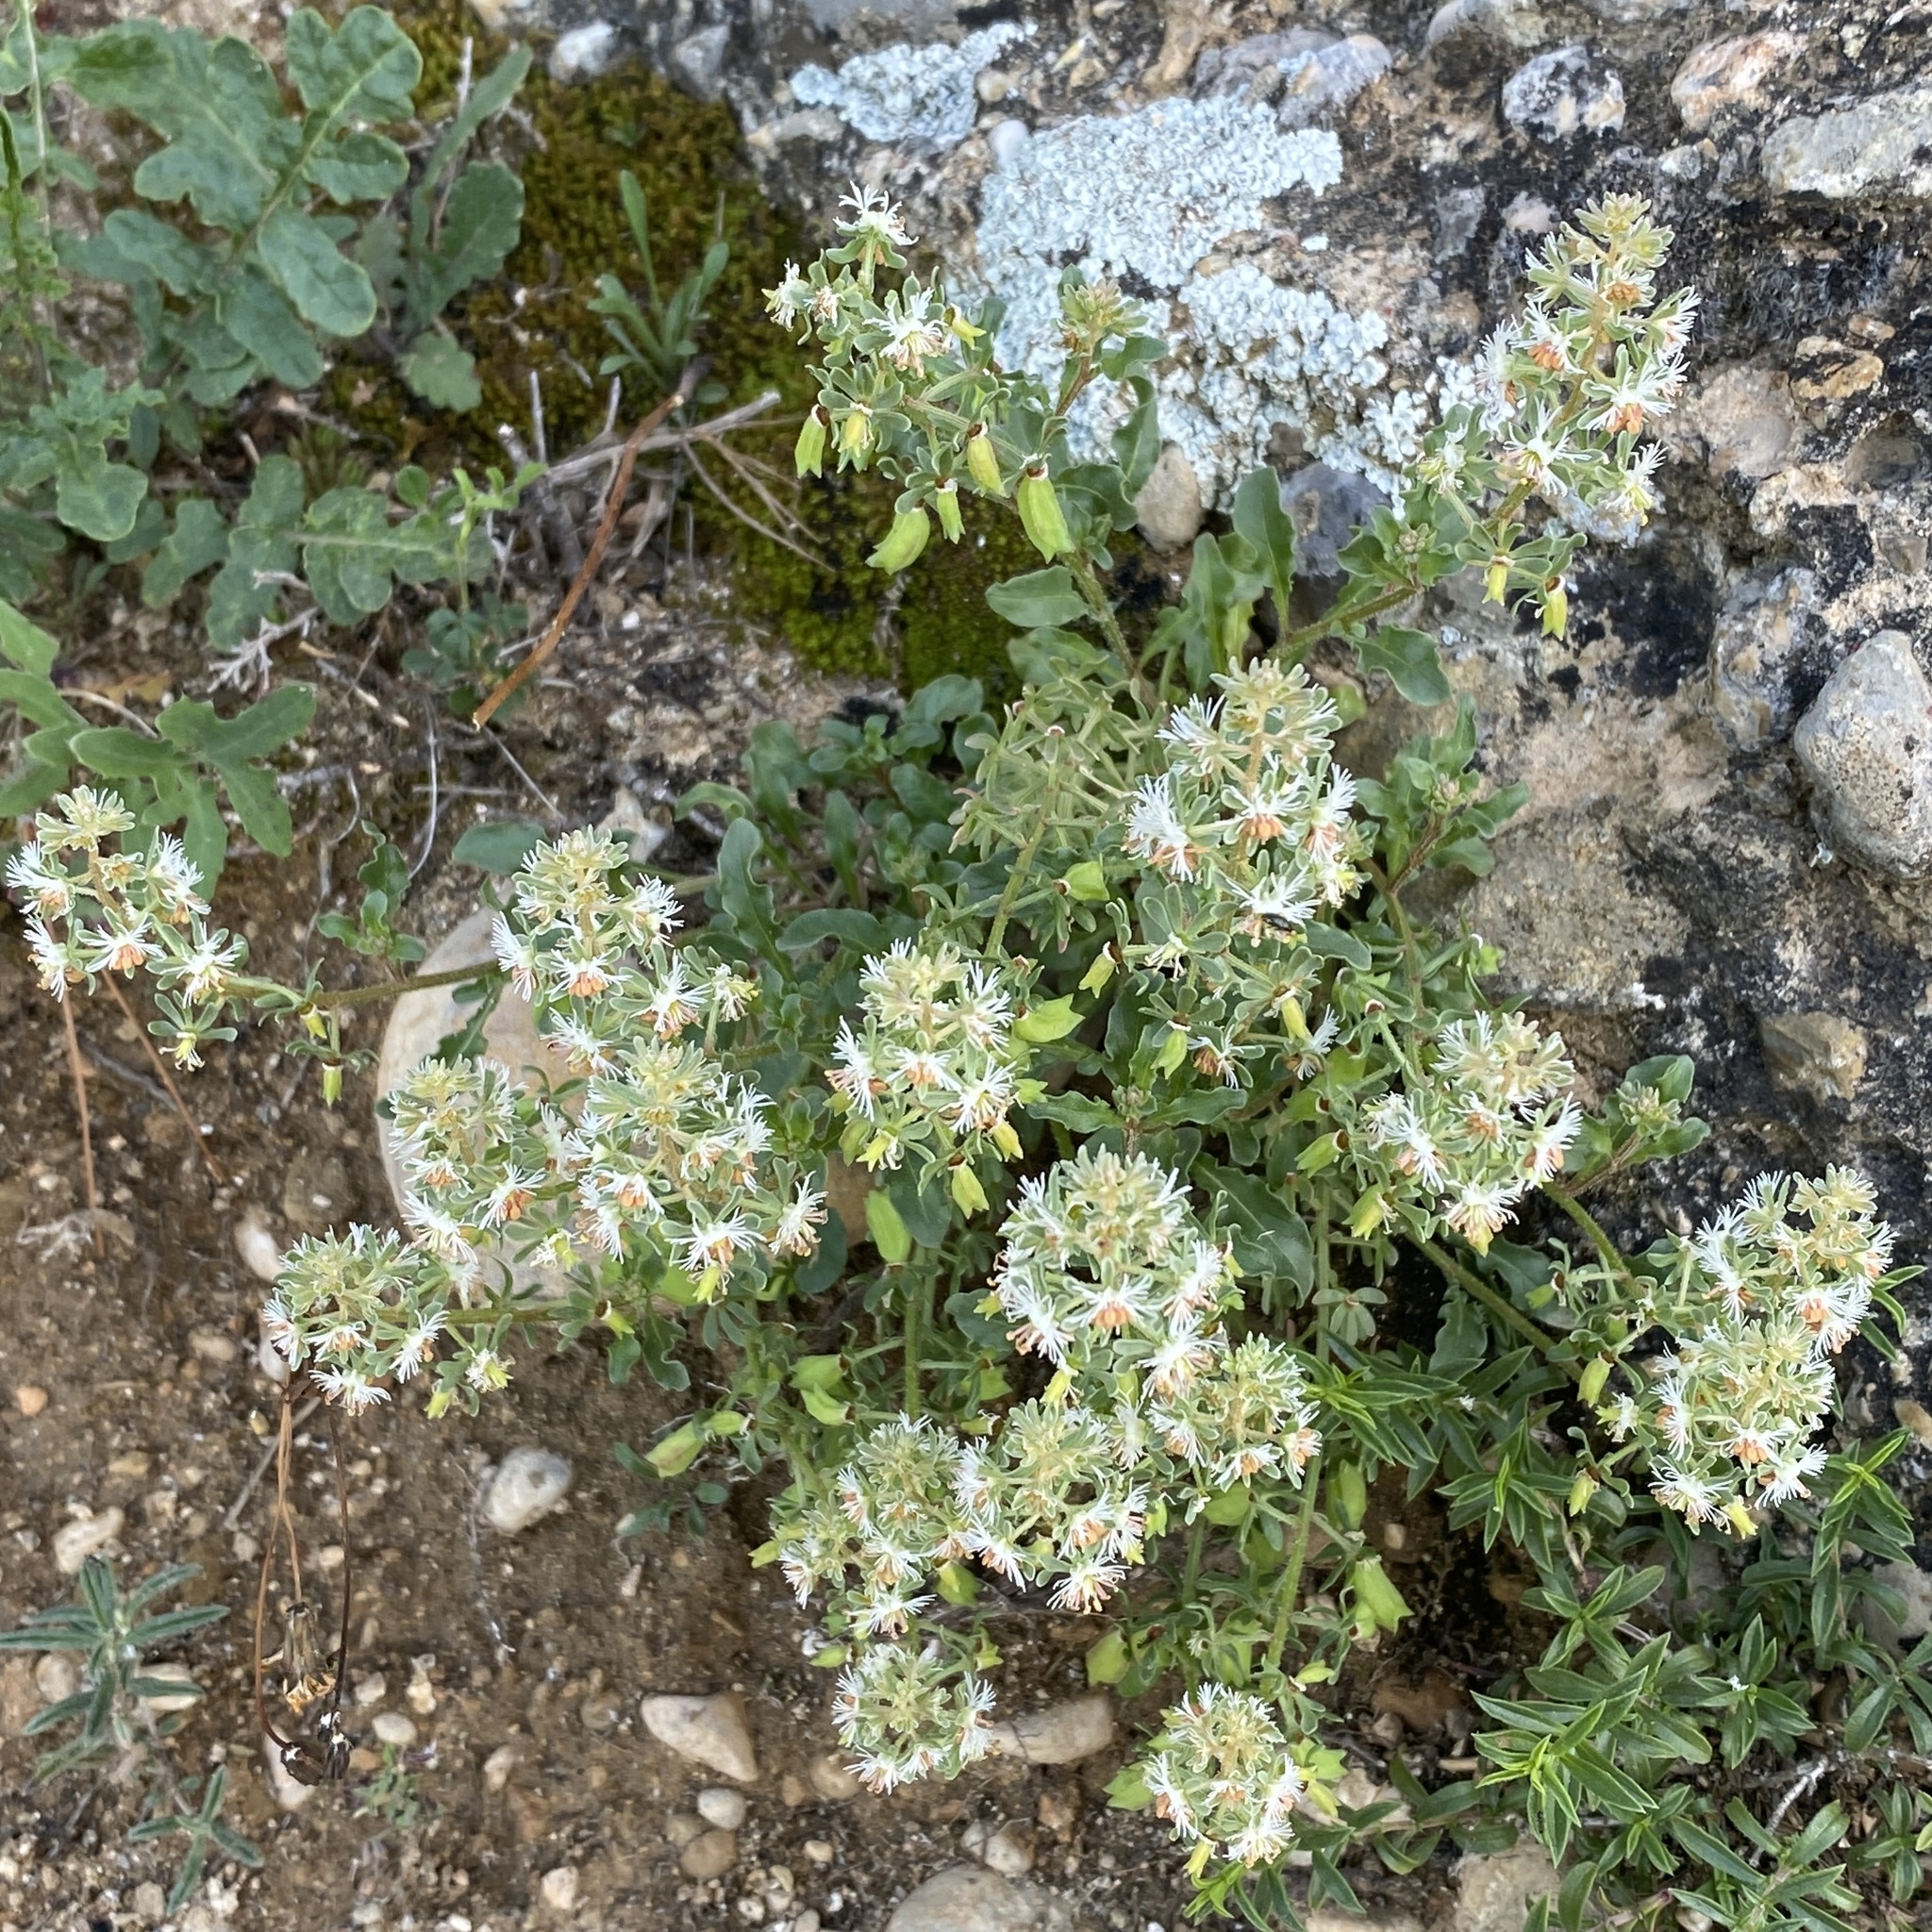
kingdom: Plantae
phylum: Tracheophyta
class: Magnoliopsida
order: Brassicales
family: Resedaceae
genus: Reseda
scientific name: Reseda phyteuma
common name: Corn mignonette
